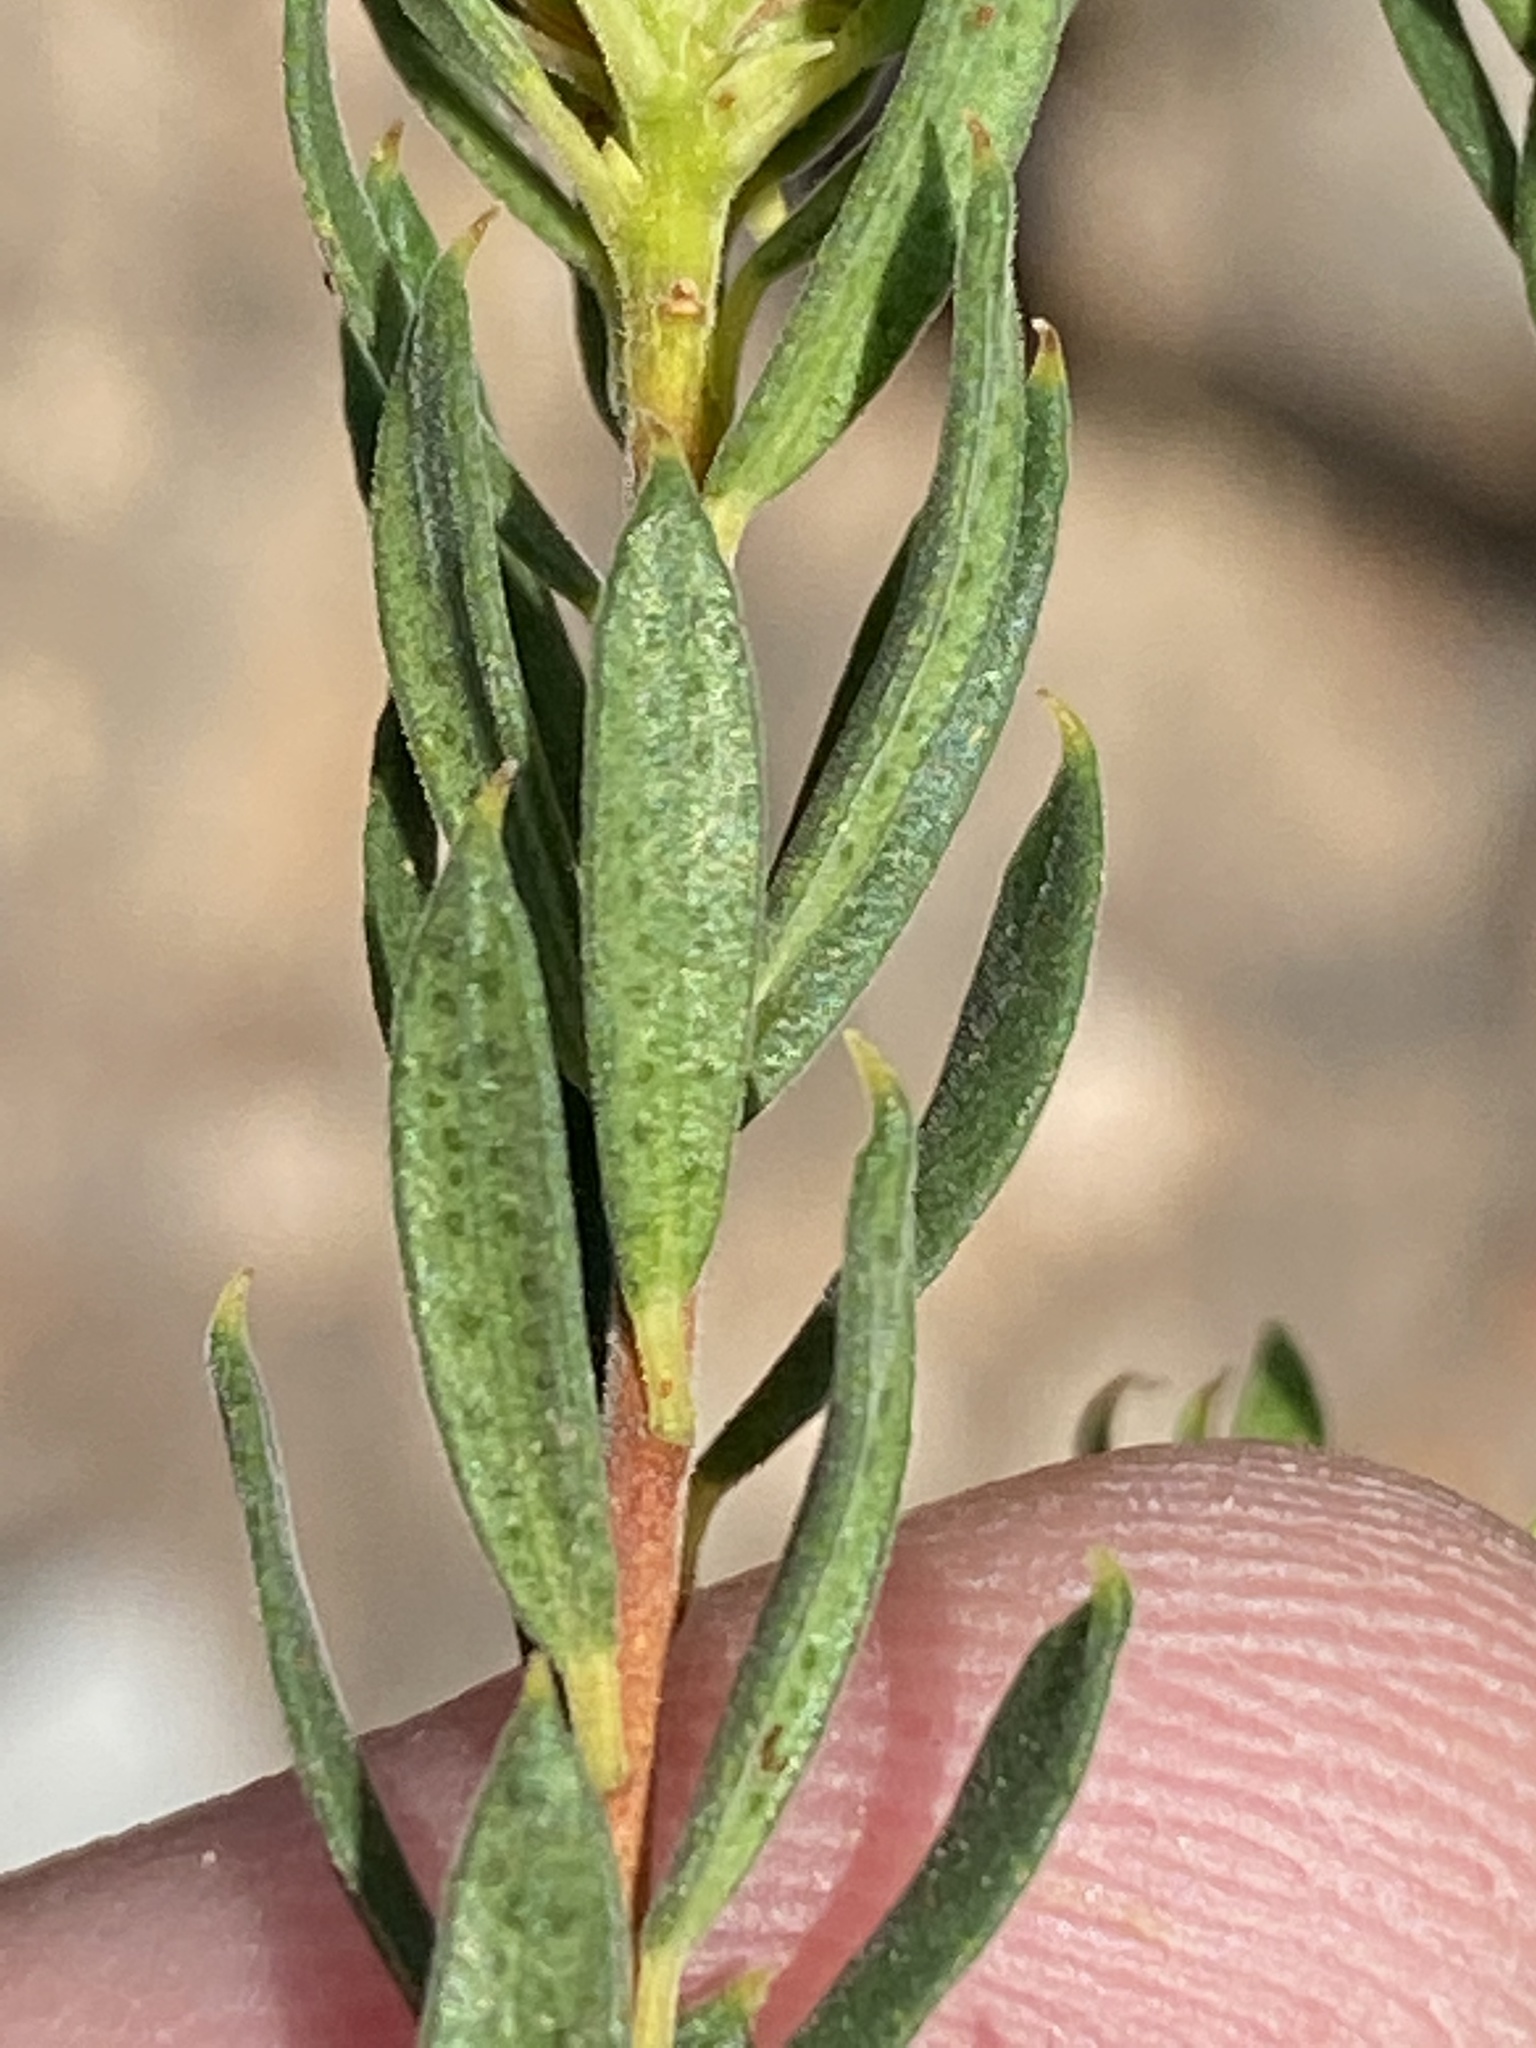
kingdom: Plantae
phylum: Tracheophyta
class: Magnoliopsida
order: Sapindales
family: Rutaceae
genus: Agathosma
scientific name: Agathosma puberula
